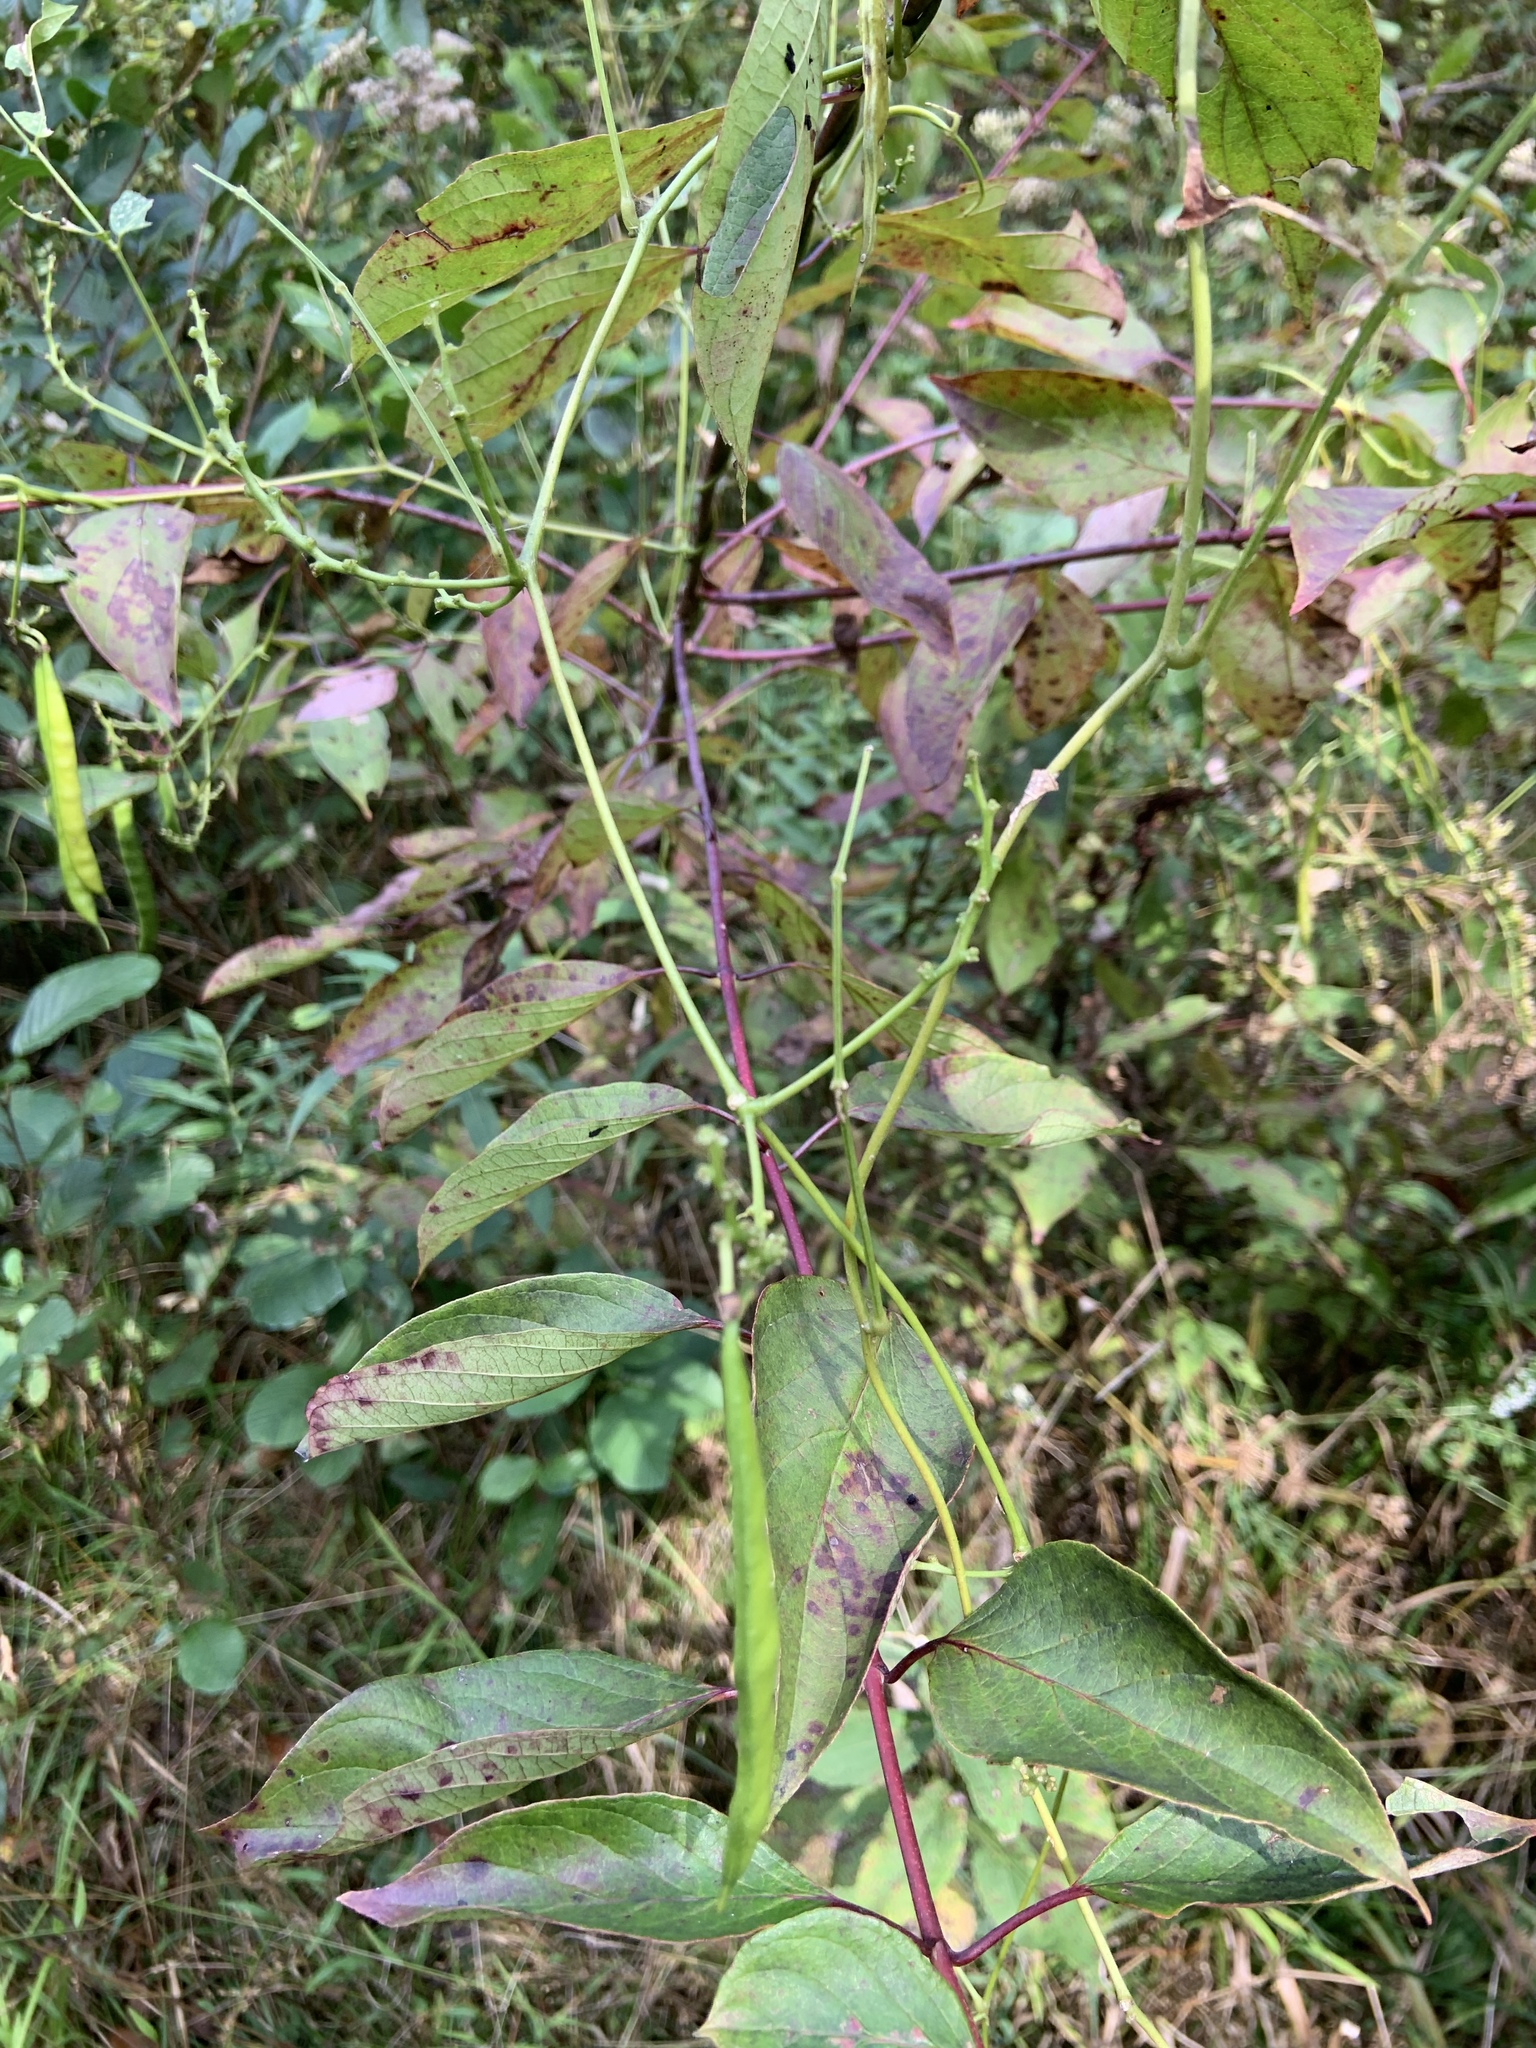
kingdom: Plantae
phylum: Tracheophyta
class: Magnoliopsida
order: Fabales
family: Fabaceae
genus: Apios
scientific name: Apios americana
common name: American potato-bean
